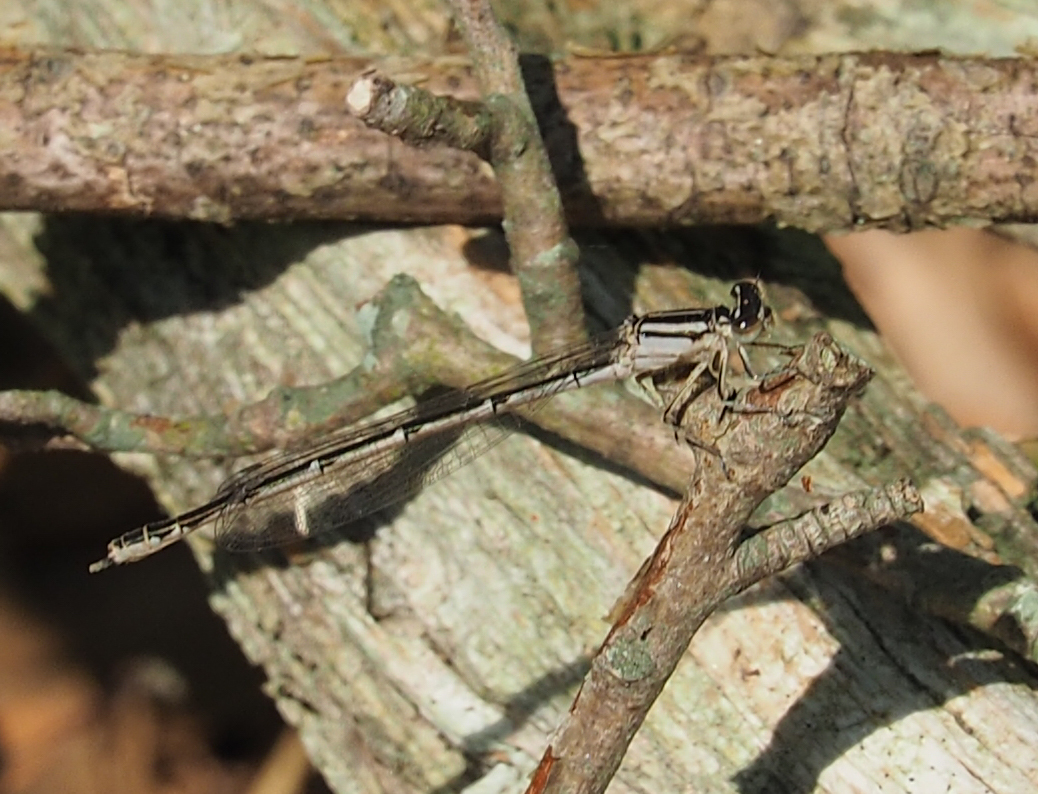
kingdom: Animalia
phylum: Arthropoda
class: Insecta
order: Odonata
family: Coenagrionidae
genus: Enallagma
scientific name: Enallagma durum
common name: Big bluet
